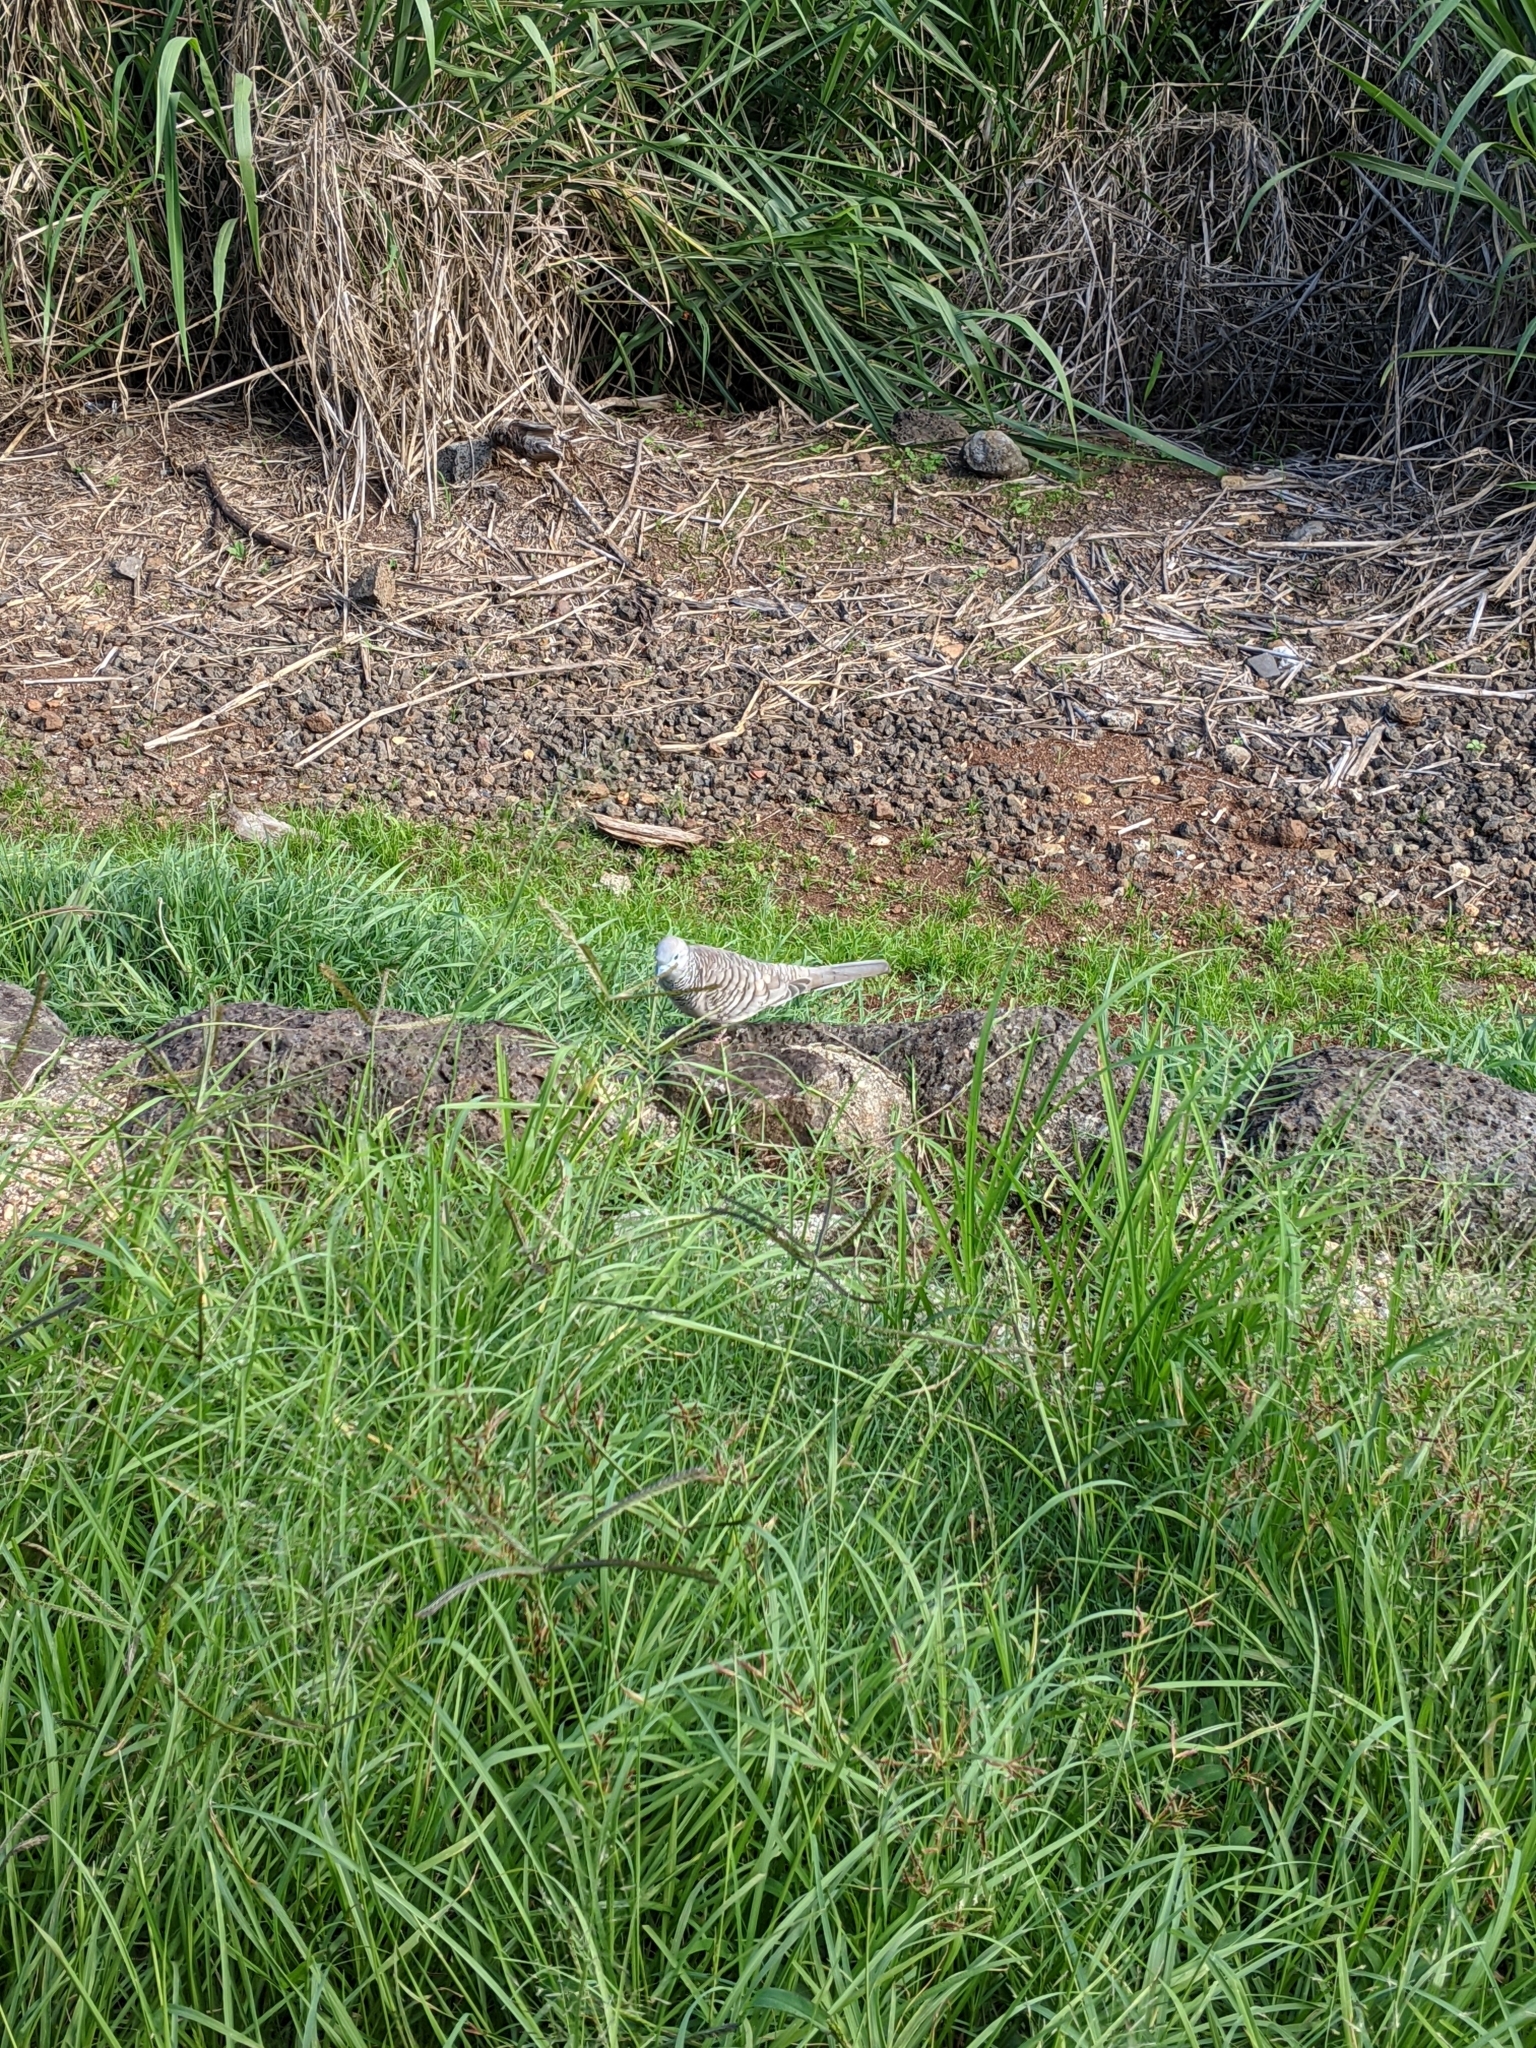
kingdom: Animalia
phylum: Chordata
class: Aves
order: Columbiformes
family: Columbidae
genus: Geopelia
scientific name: Geopelia placida
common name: Peaceful dove
